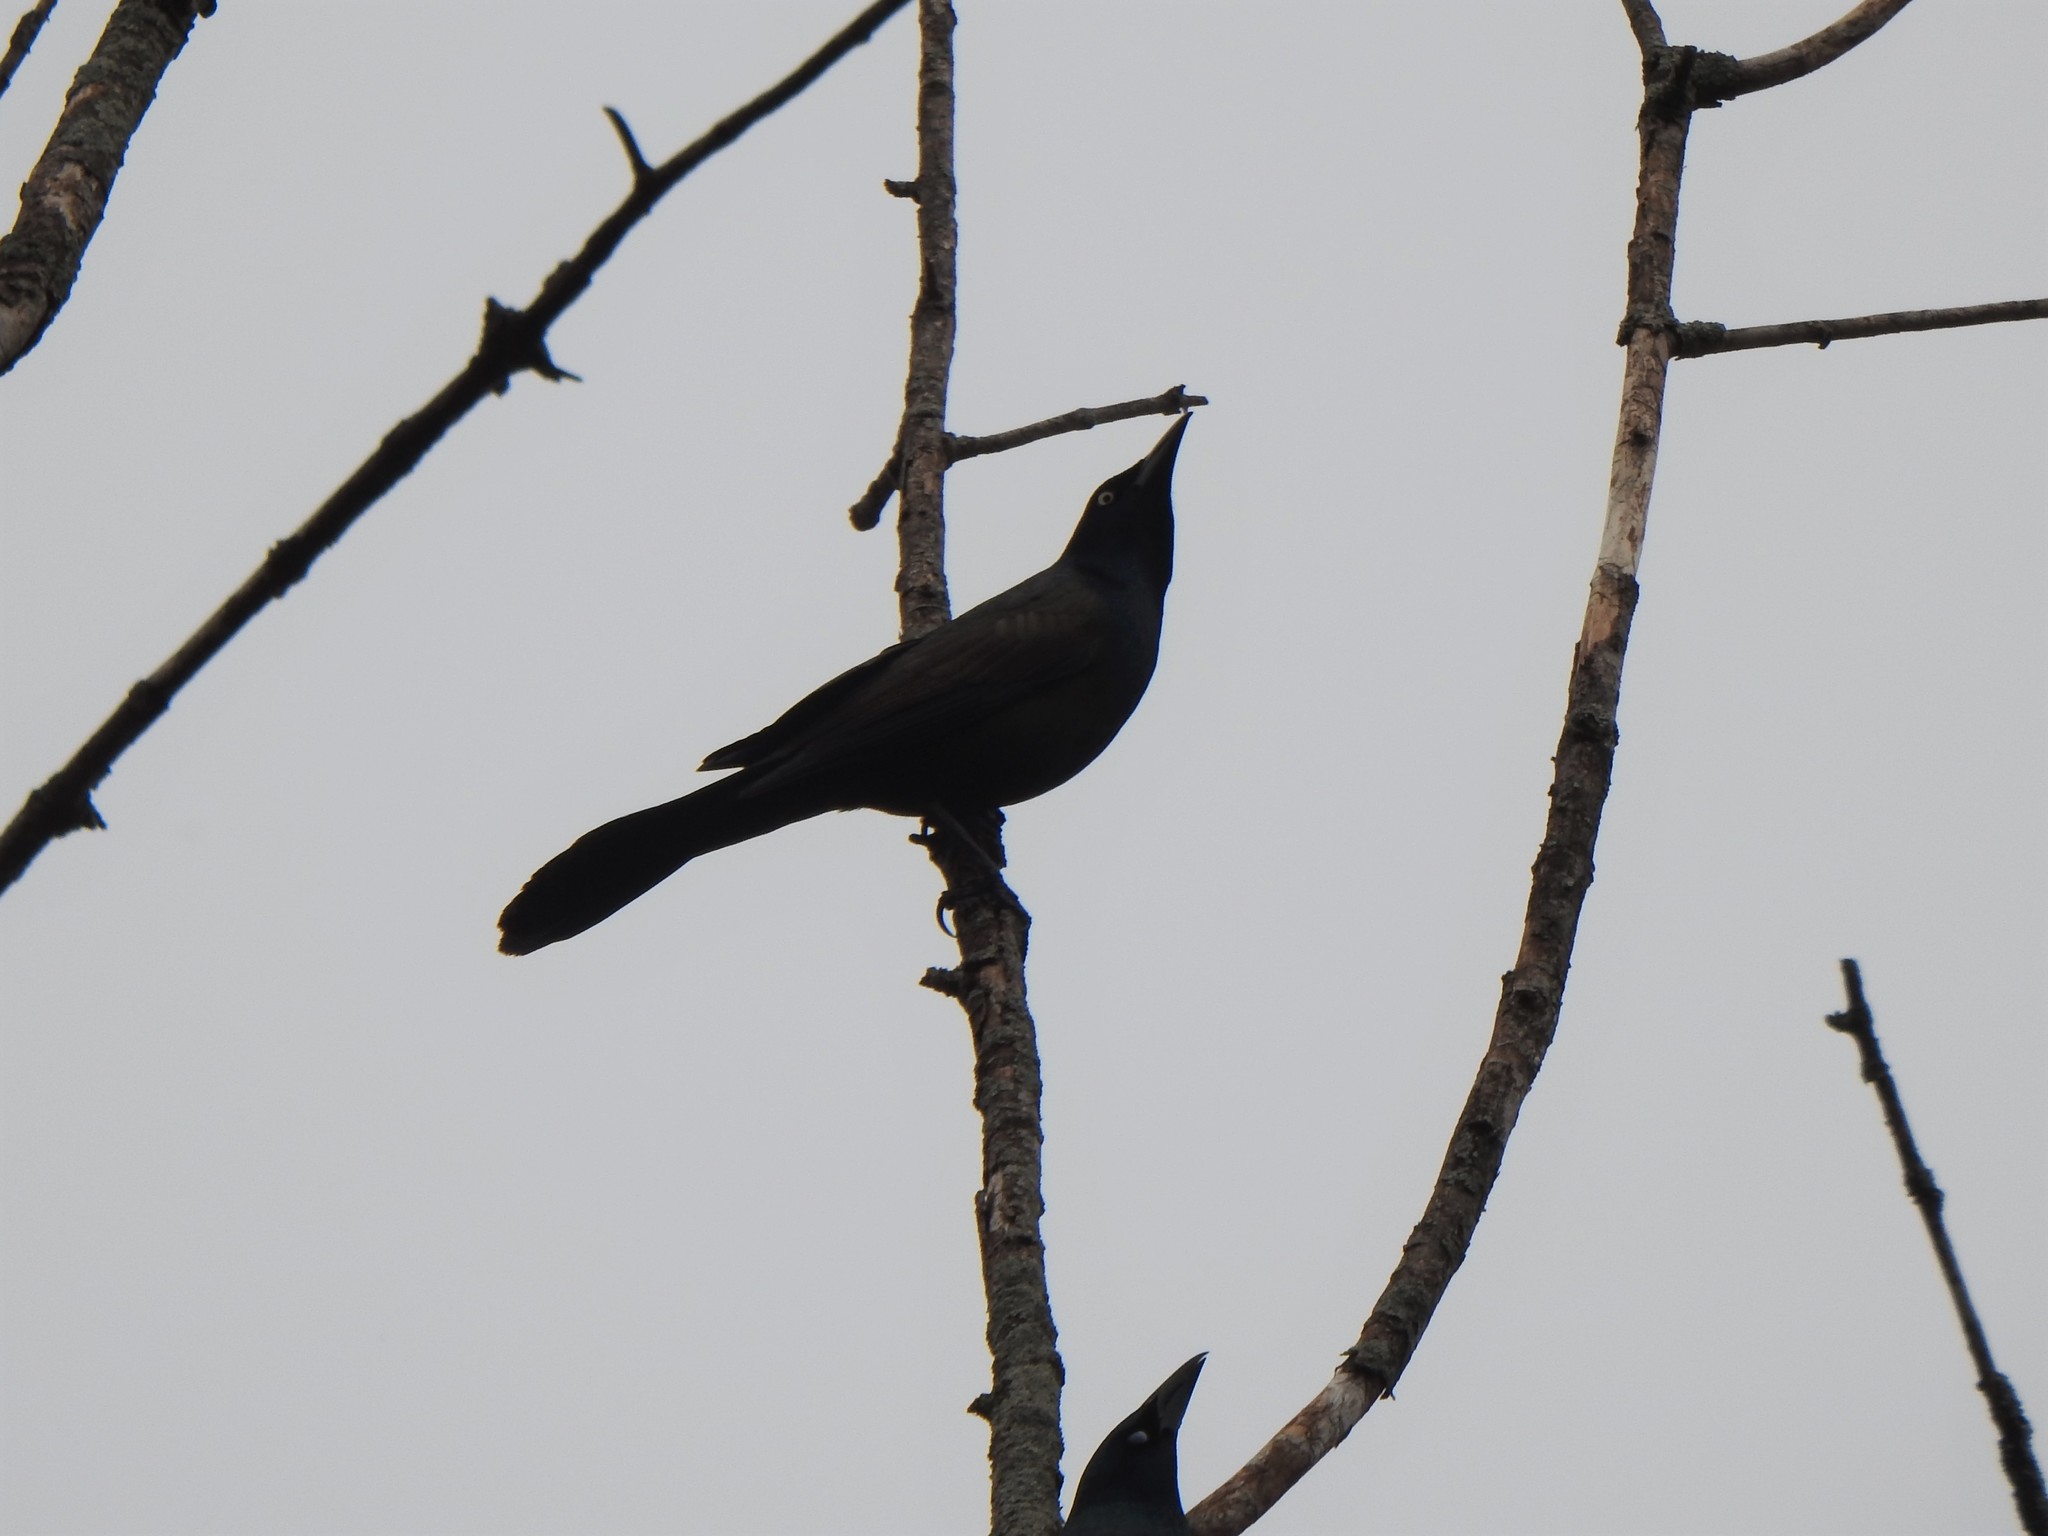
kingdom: Animalia
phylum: Chordata
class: Aves
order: Passeriformes
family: Icteridae
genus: Quiscalus
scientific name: Quiscalus quiscula
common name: Common grackle
